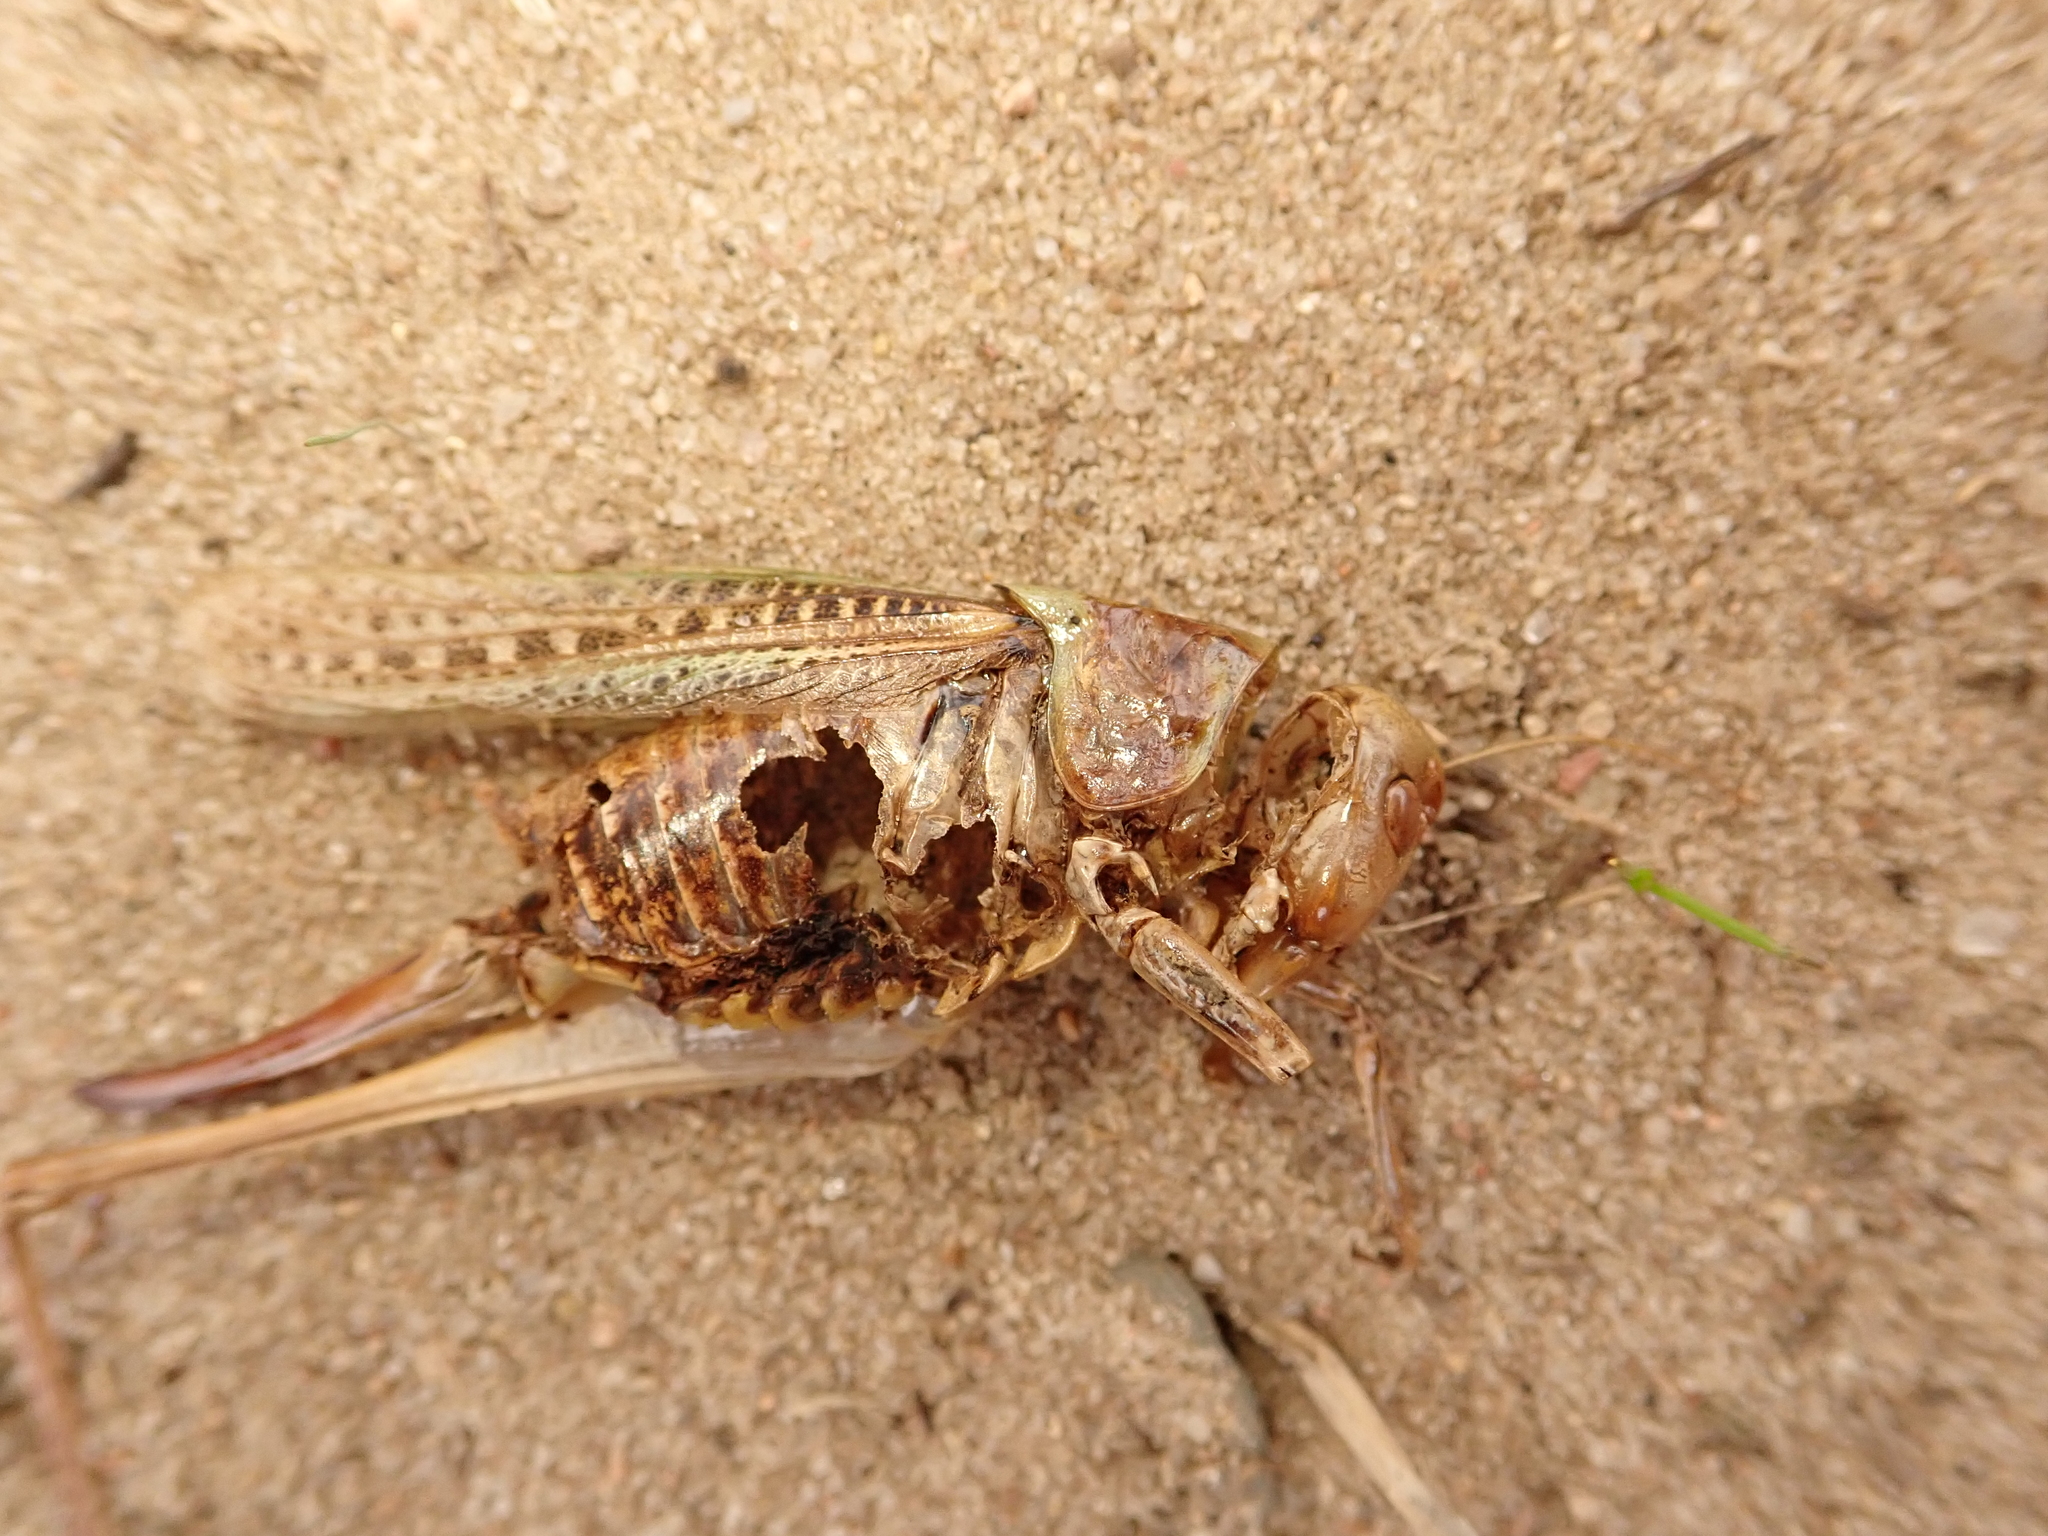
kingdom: Animalia
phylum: Arthropoda
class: Insecta
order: Orthoptera
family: Tettigoniidae
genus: Decticus
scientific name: Decticus verrucivorus
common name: Wart-biter
